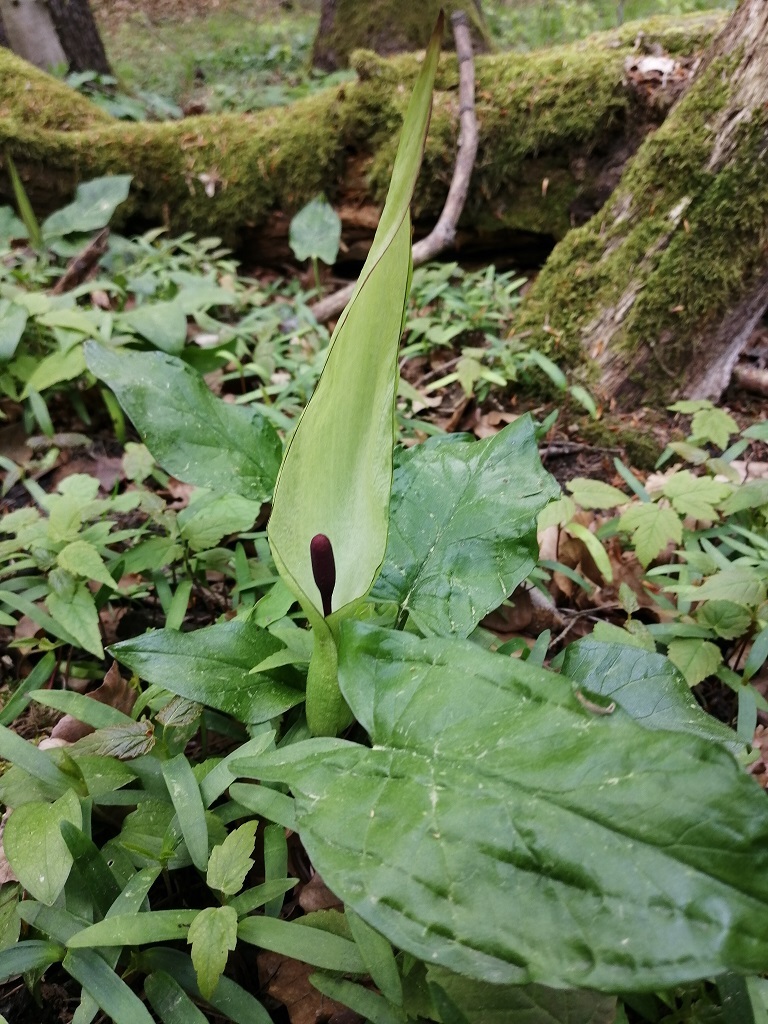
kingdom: Plantae
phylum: Tracheophyta
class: Liliopsida
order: Alismatales
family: Araceae
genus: Arum
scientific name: Arum maculatum
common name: Lords-and-ladies
